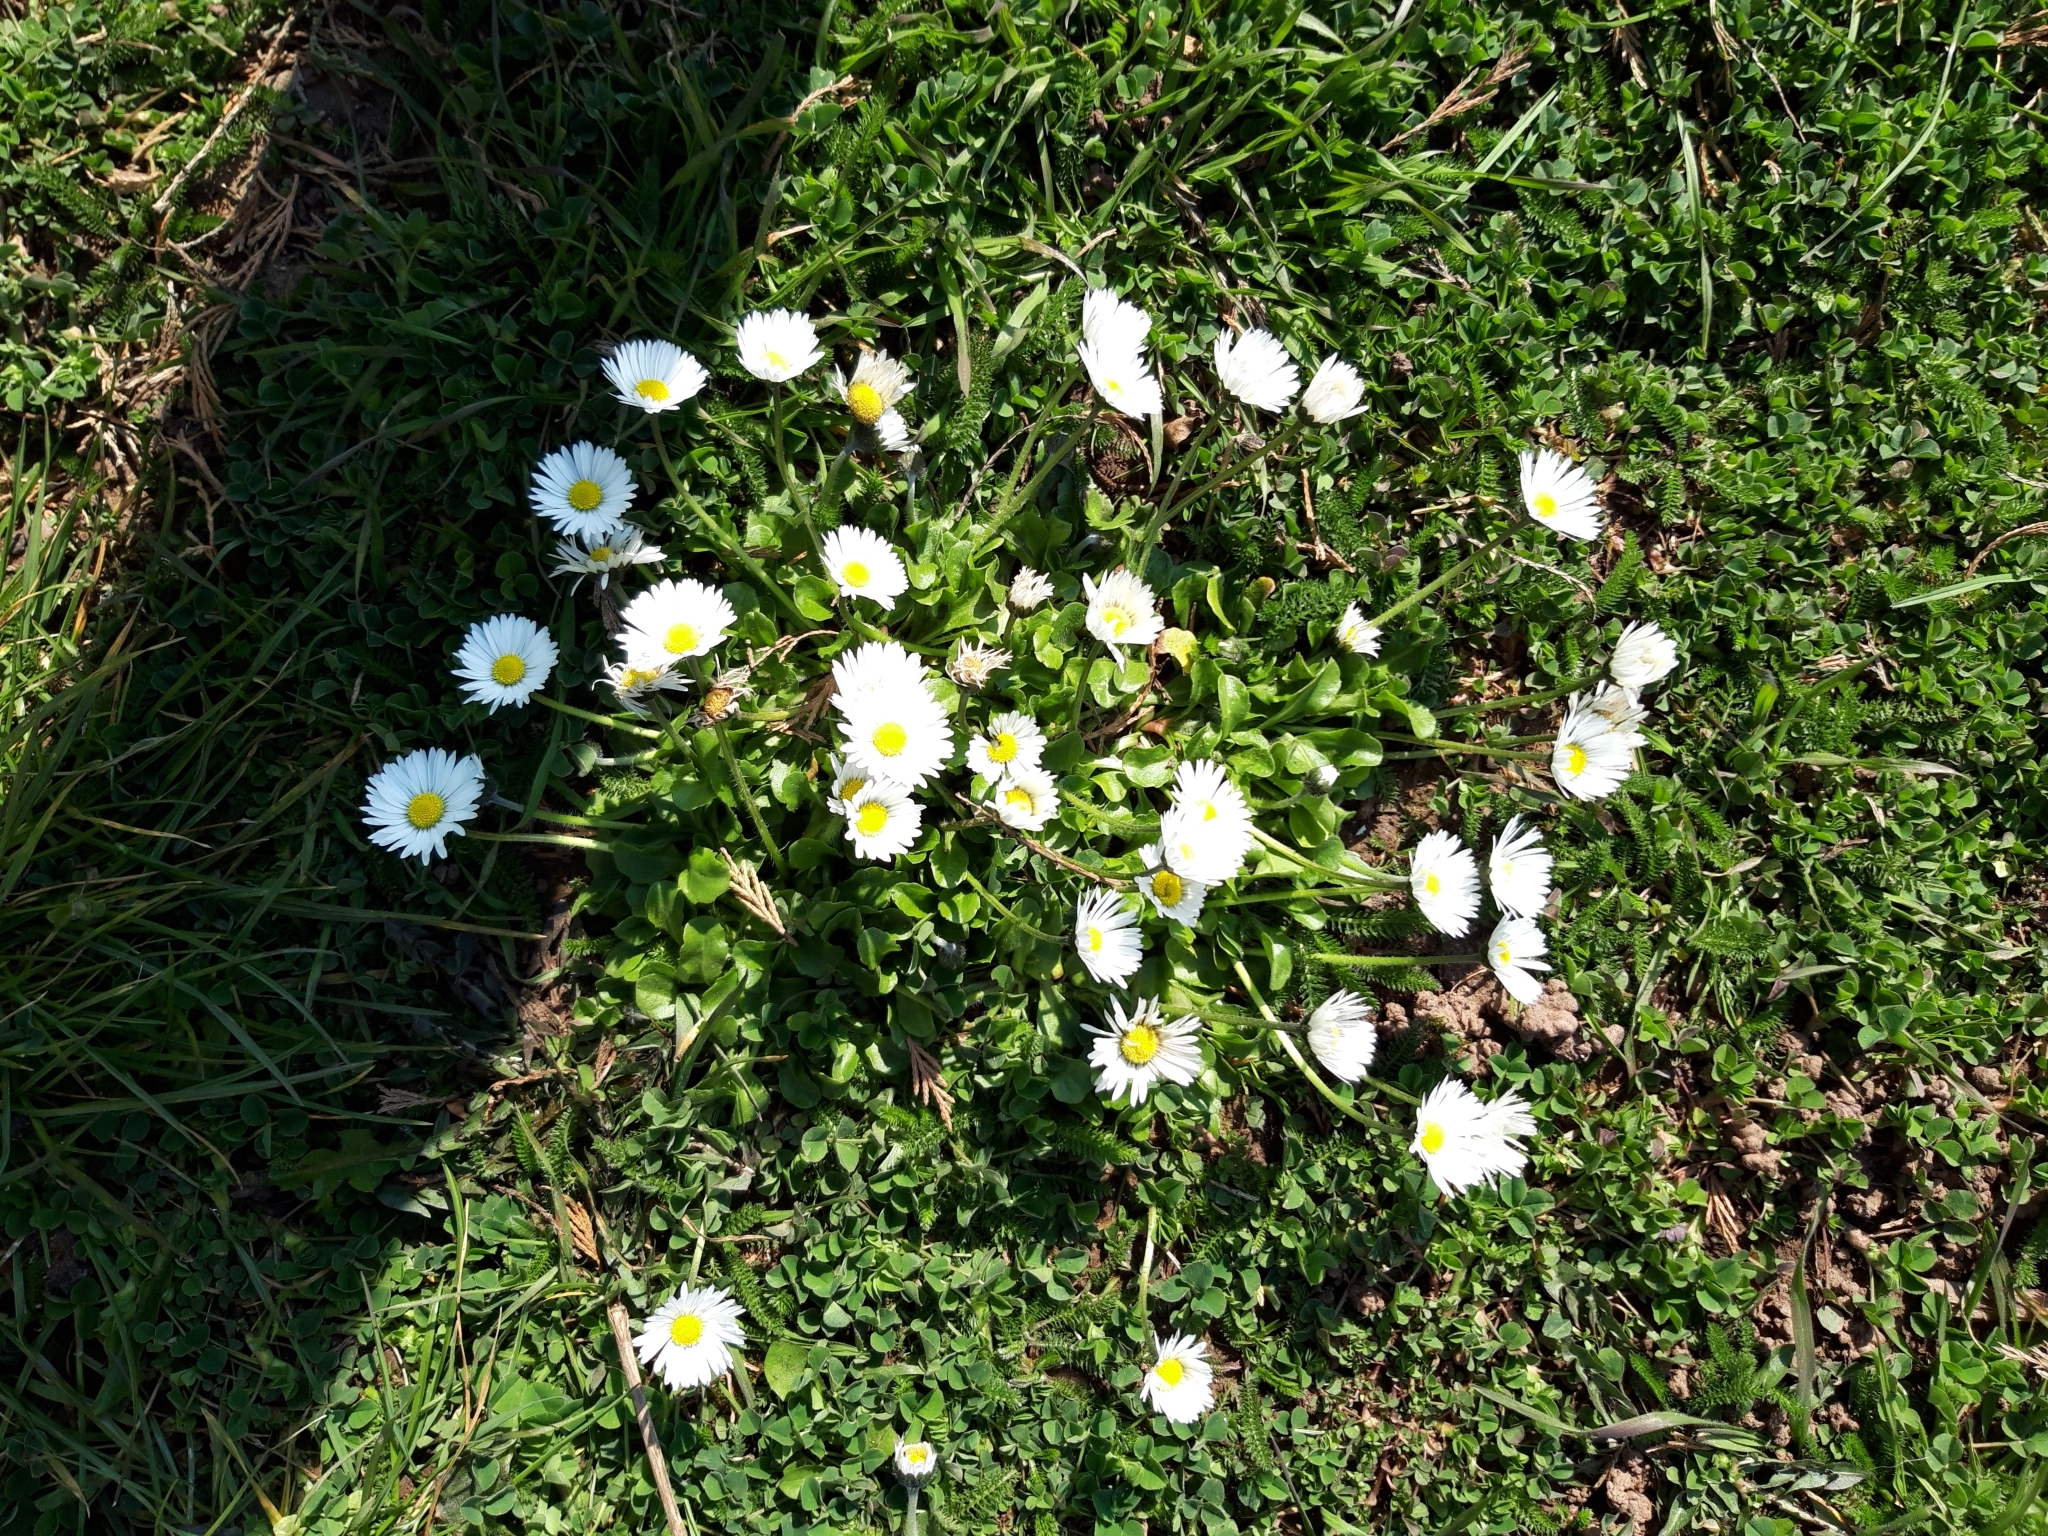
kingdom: Plantae
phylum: Tracheophyta
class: Magnoliopsida
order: Asterales
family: Asteraceae
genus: Bellis
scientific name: Bellis perennis
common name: Lawndaisy
